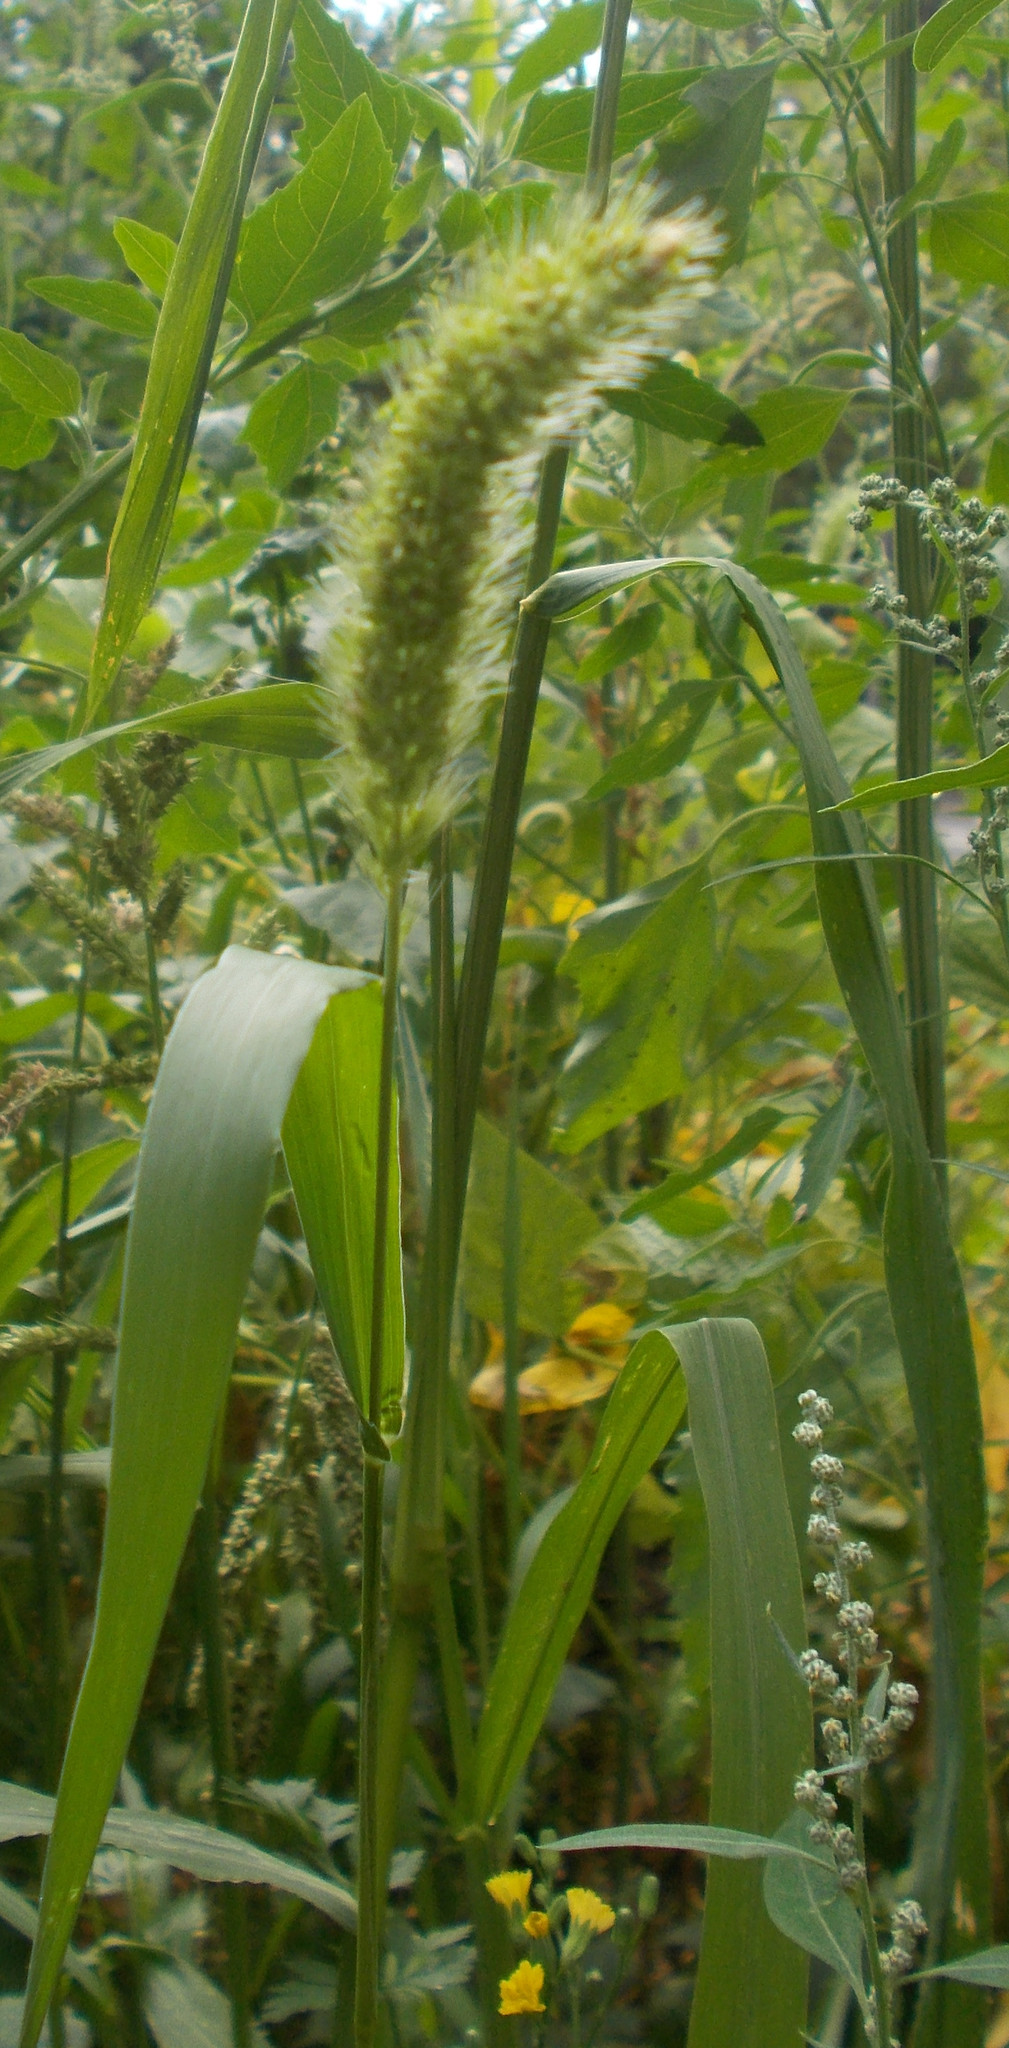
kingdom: Plantae
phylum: Tracheophyta
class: Liliopsida
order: Poales
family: Poaceae
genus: Setaria
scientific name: Setaria viridis
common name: Green bristlegrass
